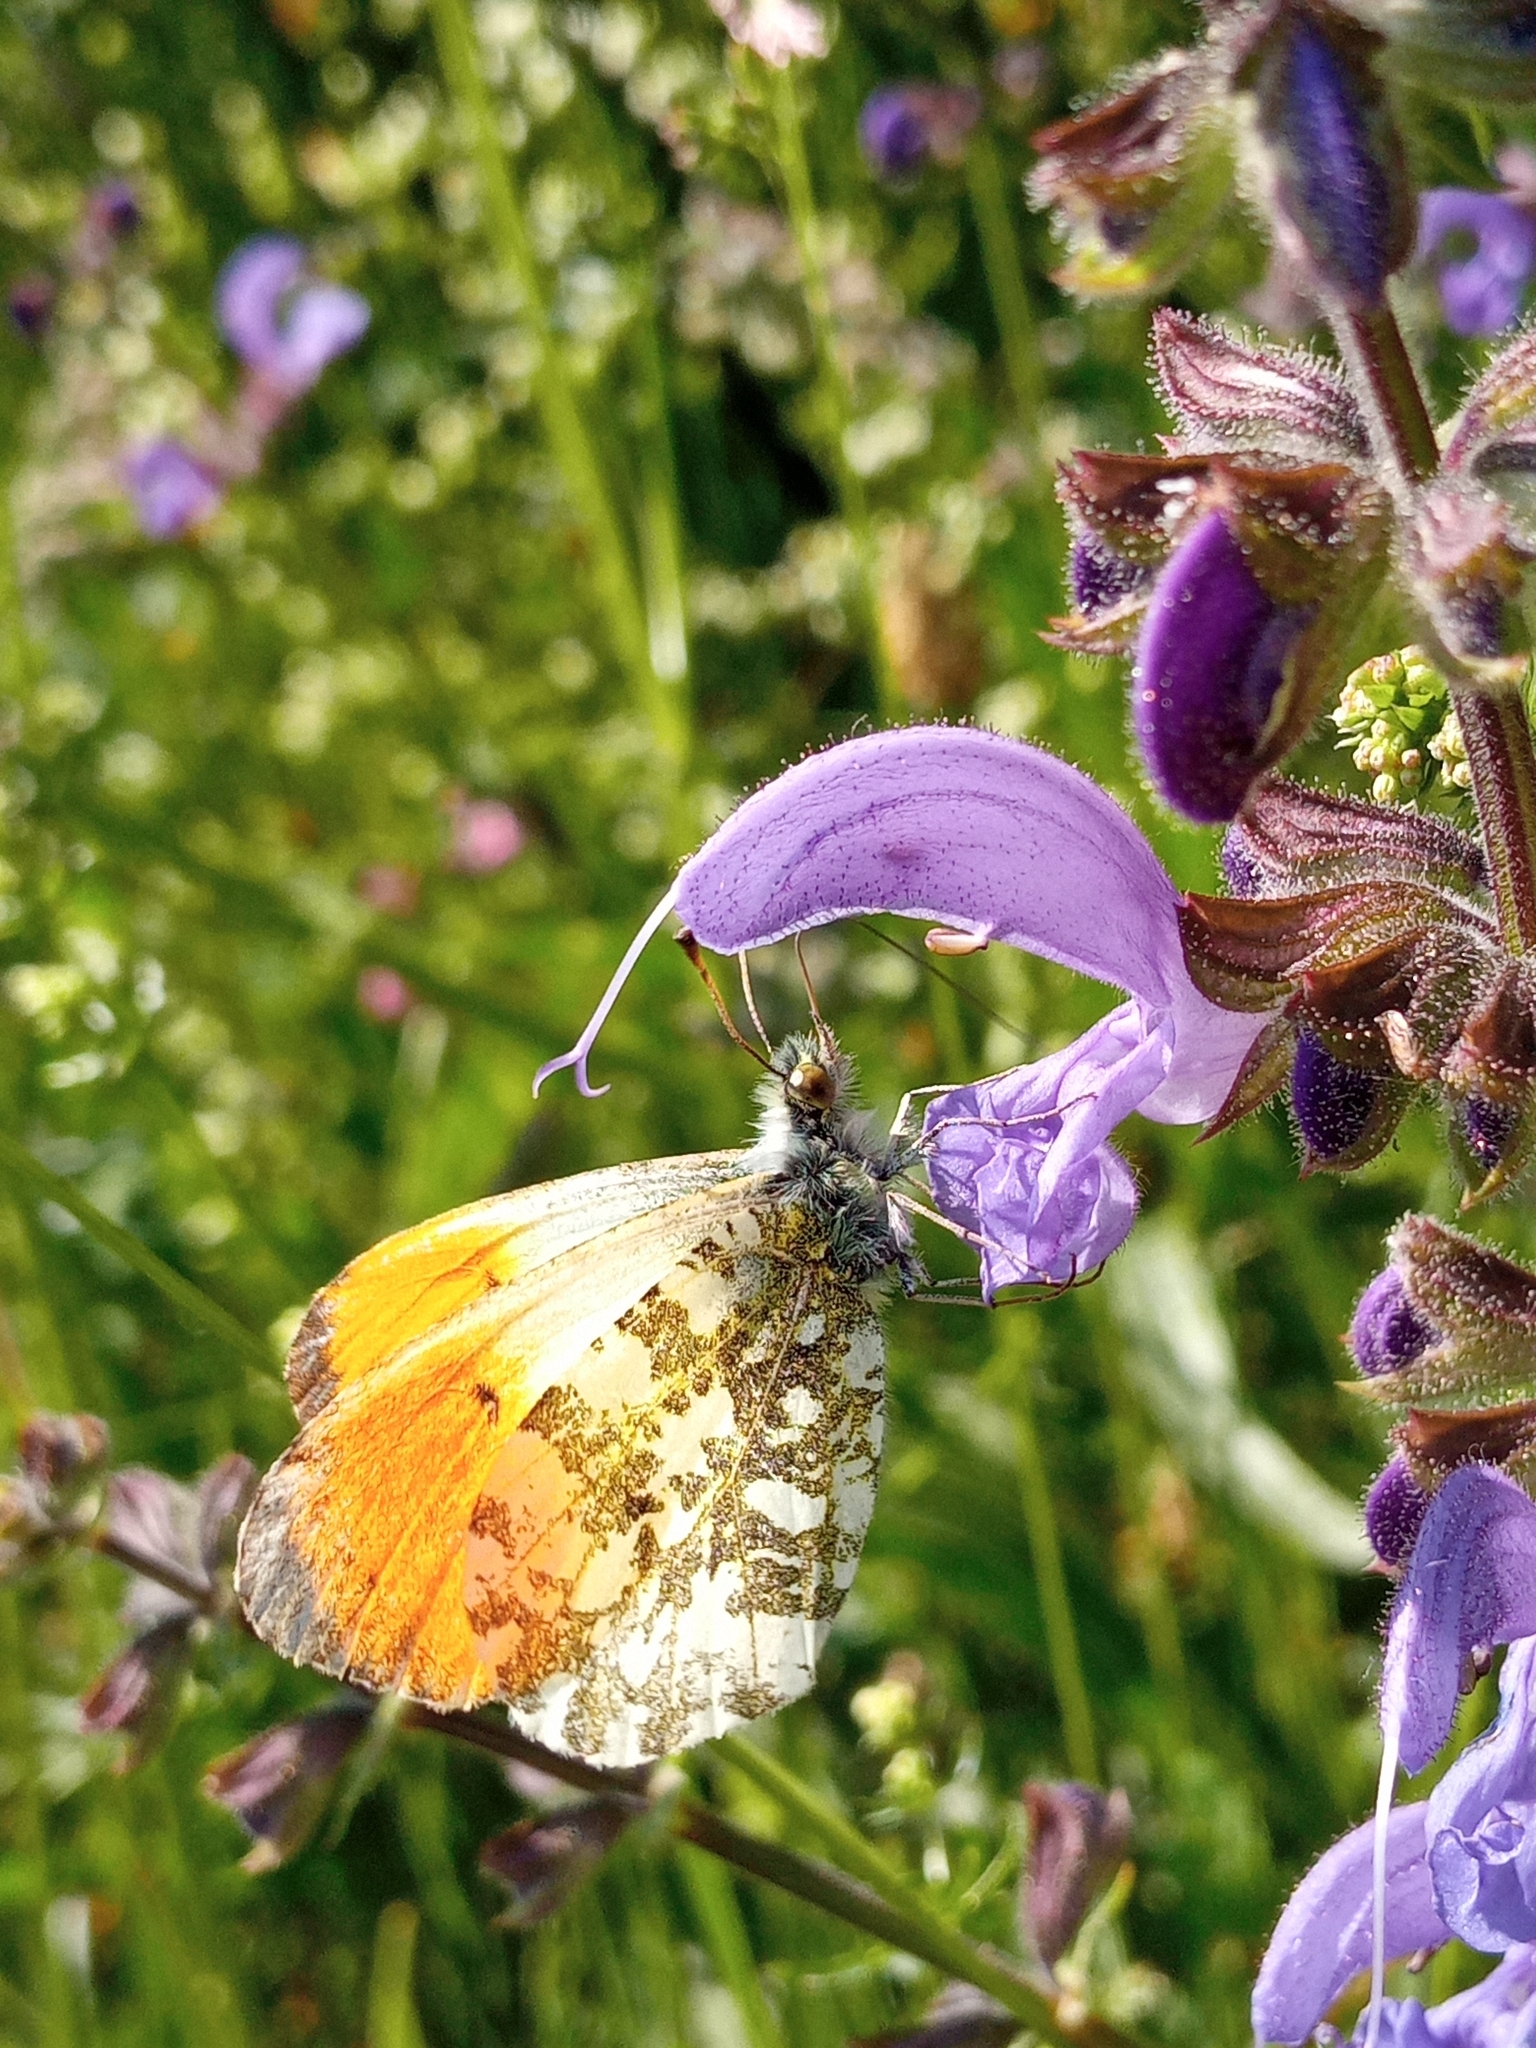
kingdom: Animalia
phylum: Arthropoda
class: Insecta
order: Lepidoptera
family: Pieridae
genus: Anthocharis
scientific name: Anthocharis cardamines
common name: Orange-tip
